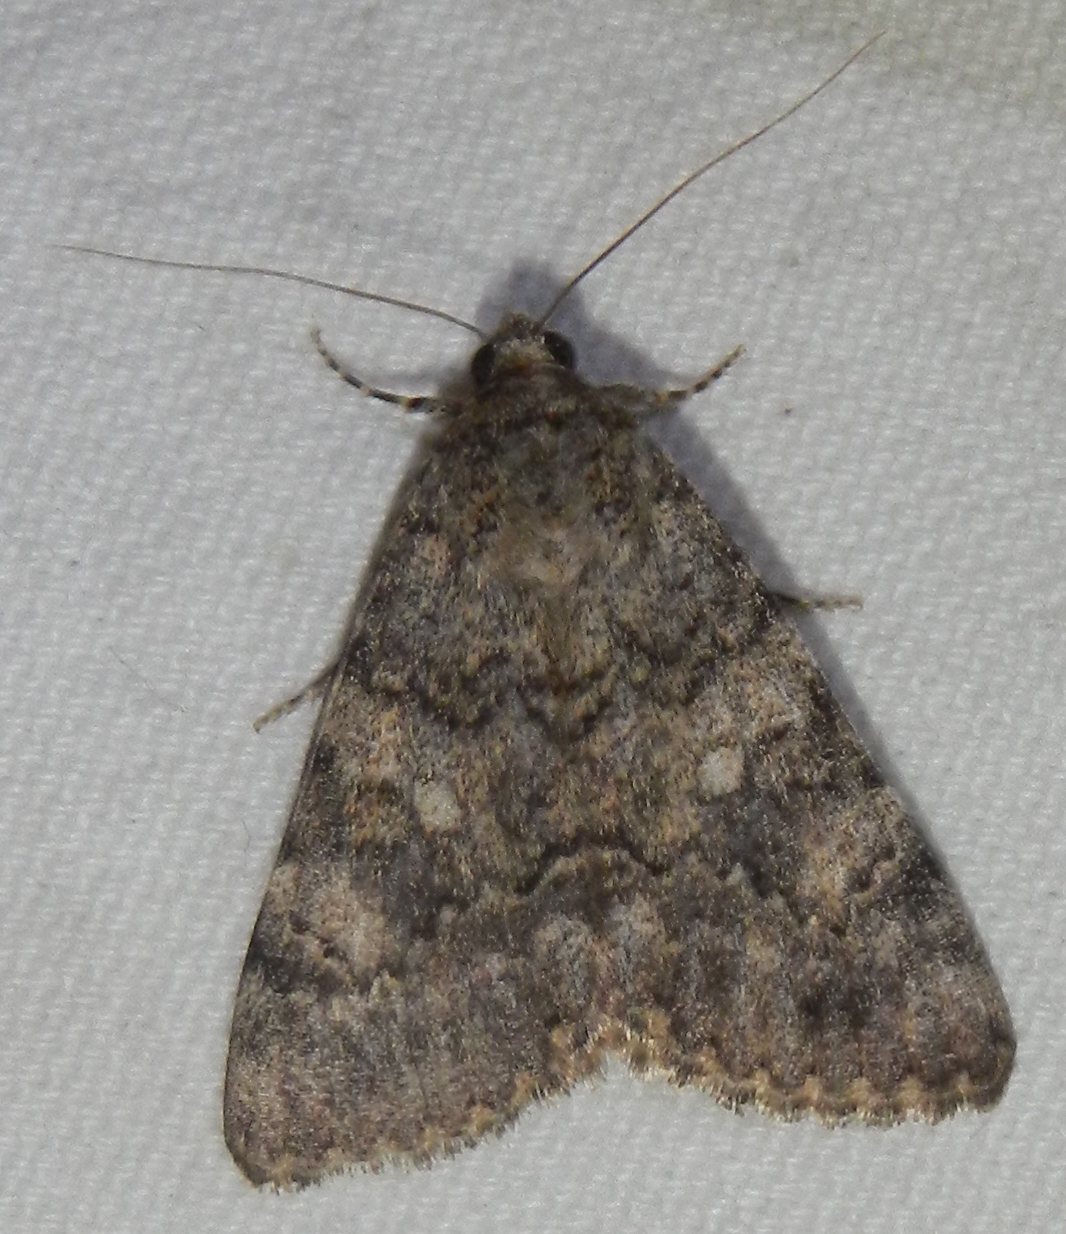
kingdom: Animalia
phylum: Arthropoda
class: Insecta
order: Lepidoptera
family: Erebidae
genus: Catocala
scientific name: Catocala benjamini
